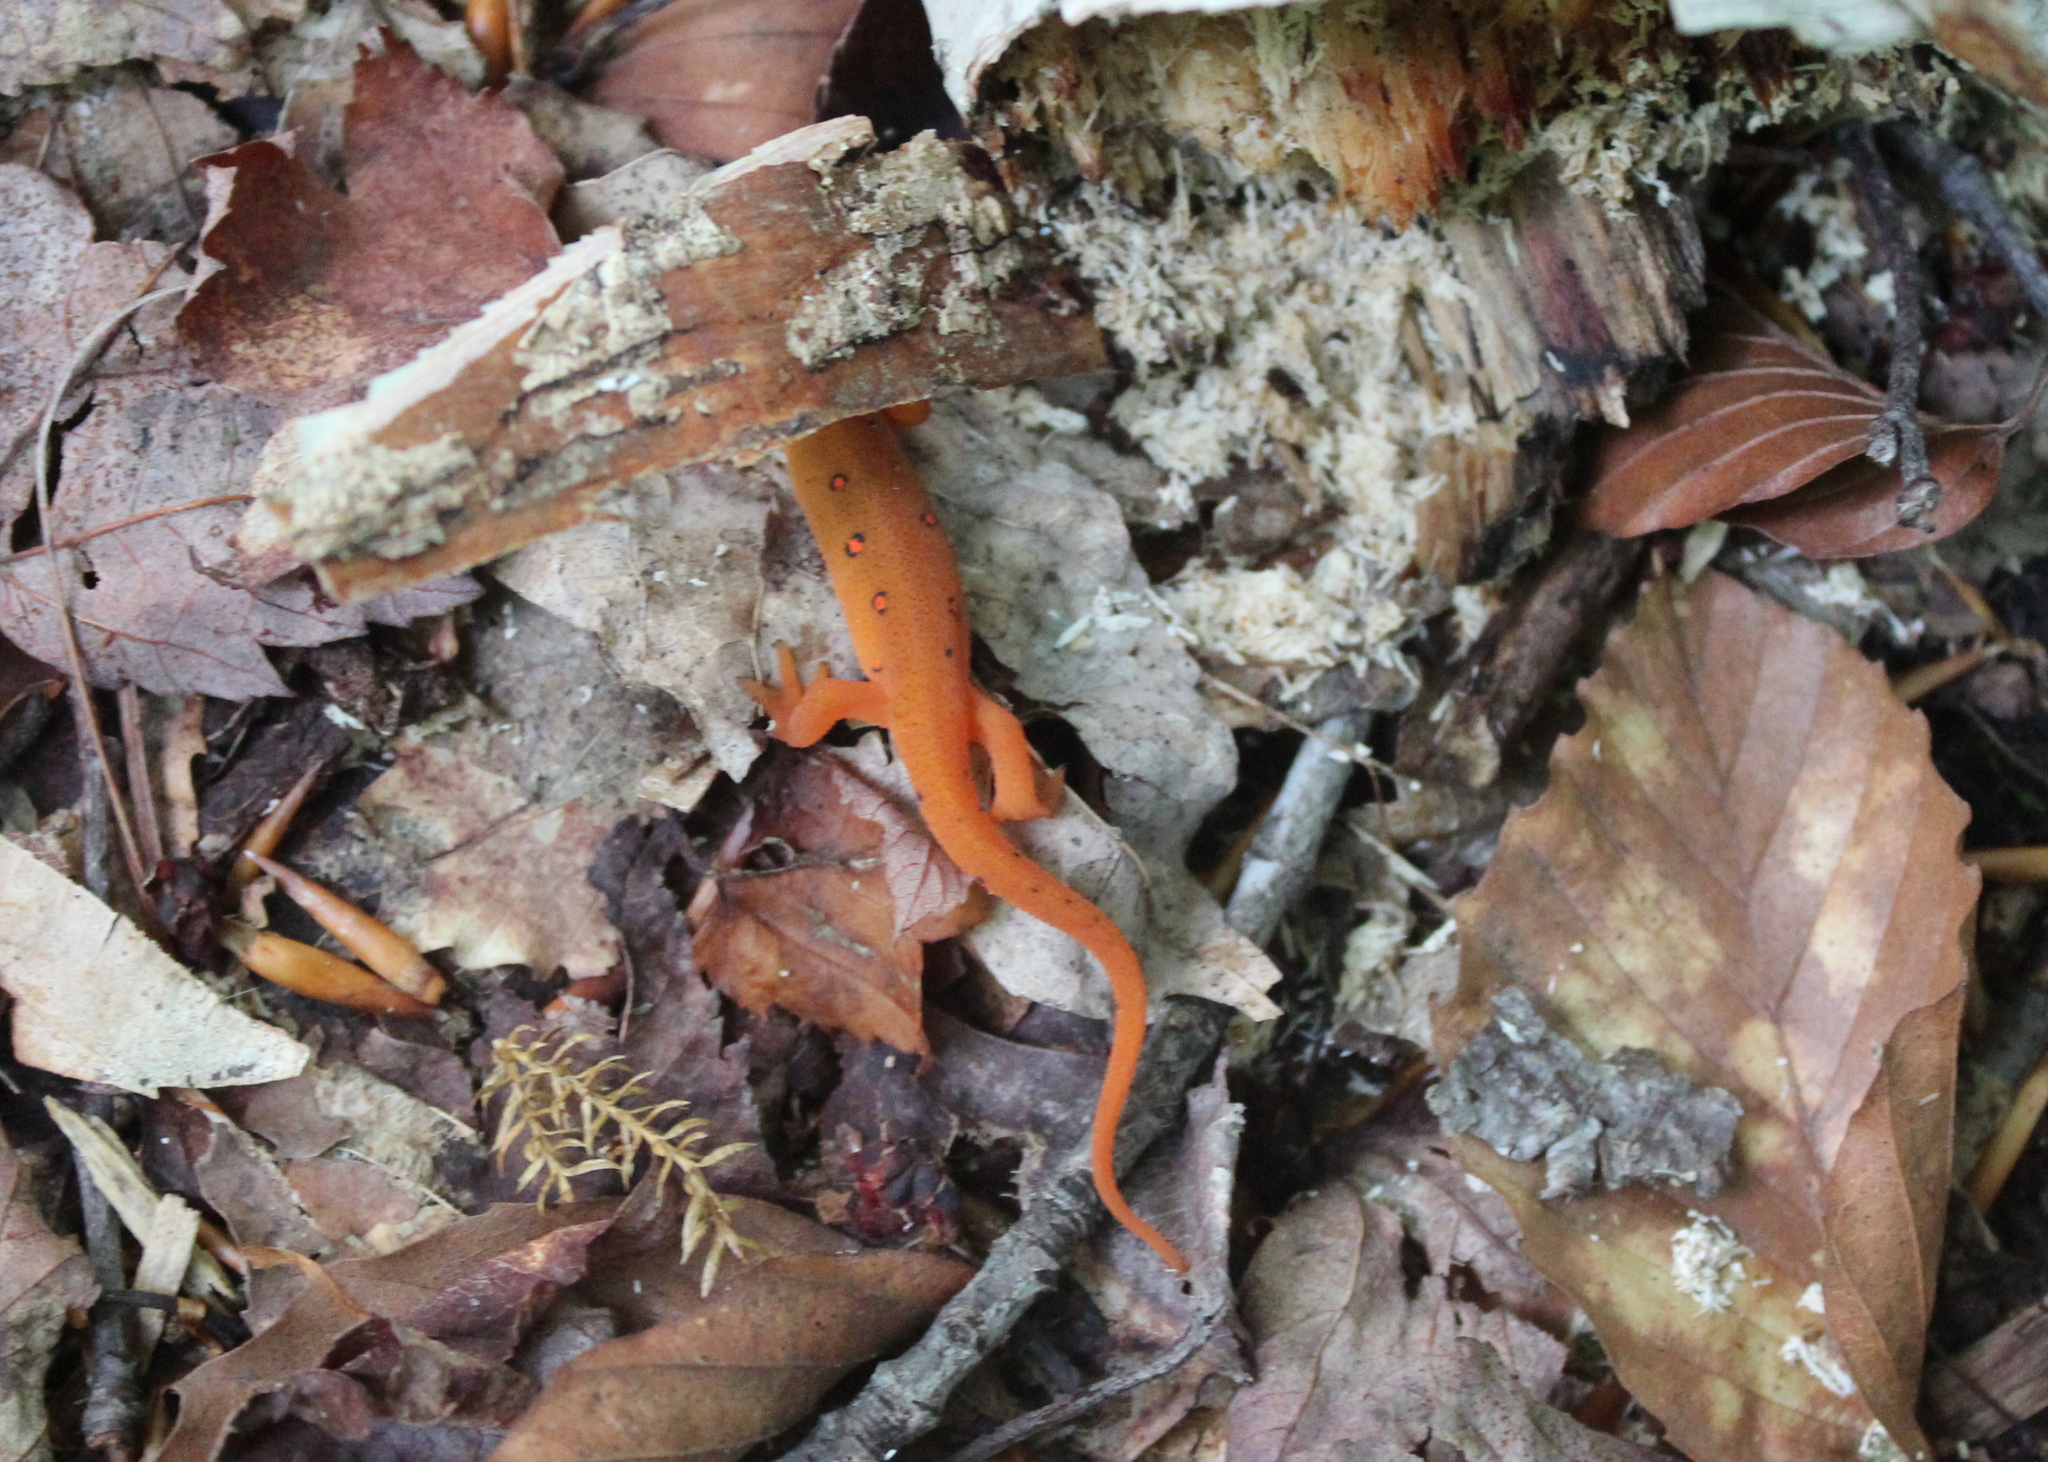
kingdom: Animalia
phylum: Chordata
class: Amphibia
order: Caudata
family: Salamandridae
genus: Notophthalmus
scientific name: Notophthalmus viridescens
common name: Eastern newt
